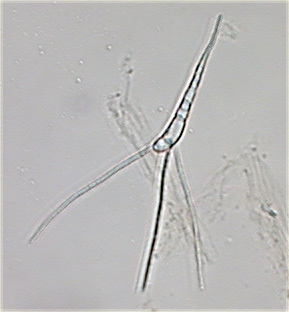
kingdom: Fungi
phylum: Ascomycota
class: Leotiomycetes
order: Helotiales
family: Helotiaceae
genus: Culicidospora
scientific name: Culicidospora aquatica
